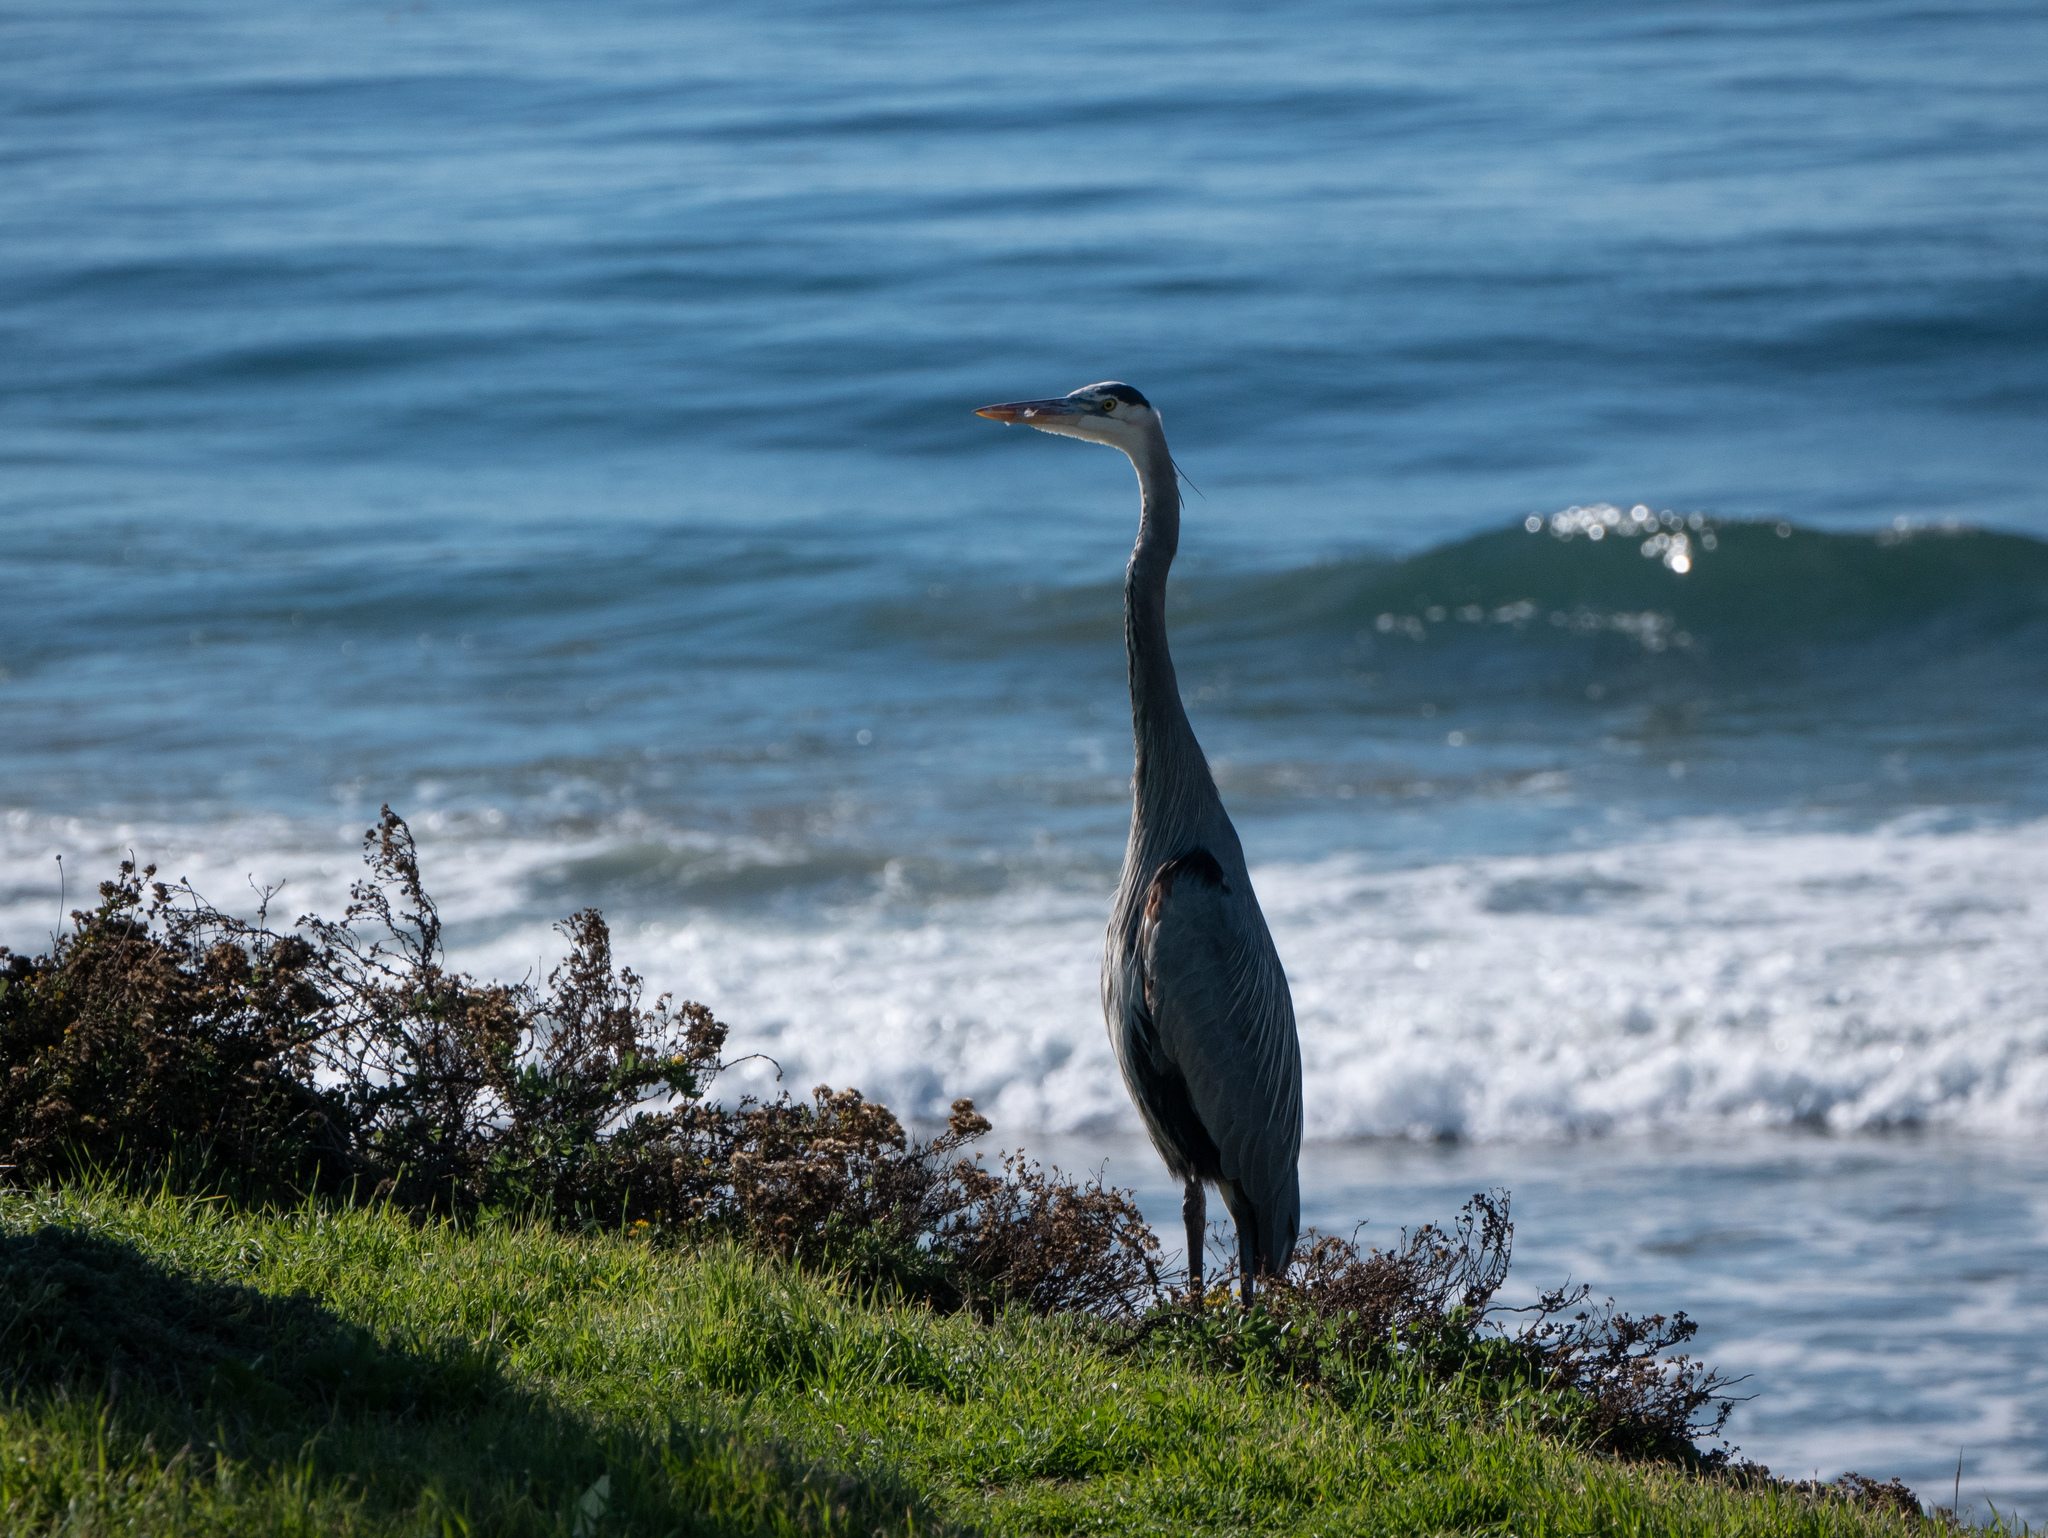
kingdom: Animalia
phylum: Chordata
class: Aves
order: Pelecaniformes
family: Ardeidae
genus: Ardea
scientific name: Ardea herodias
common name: Great blue heron
